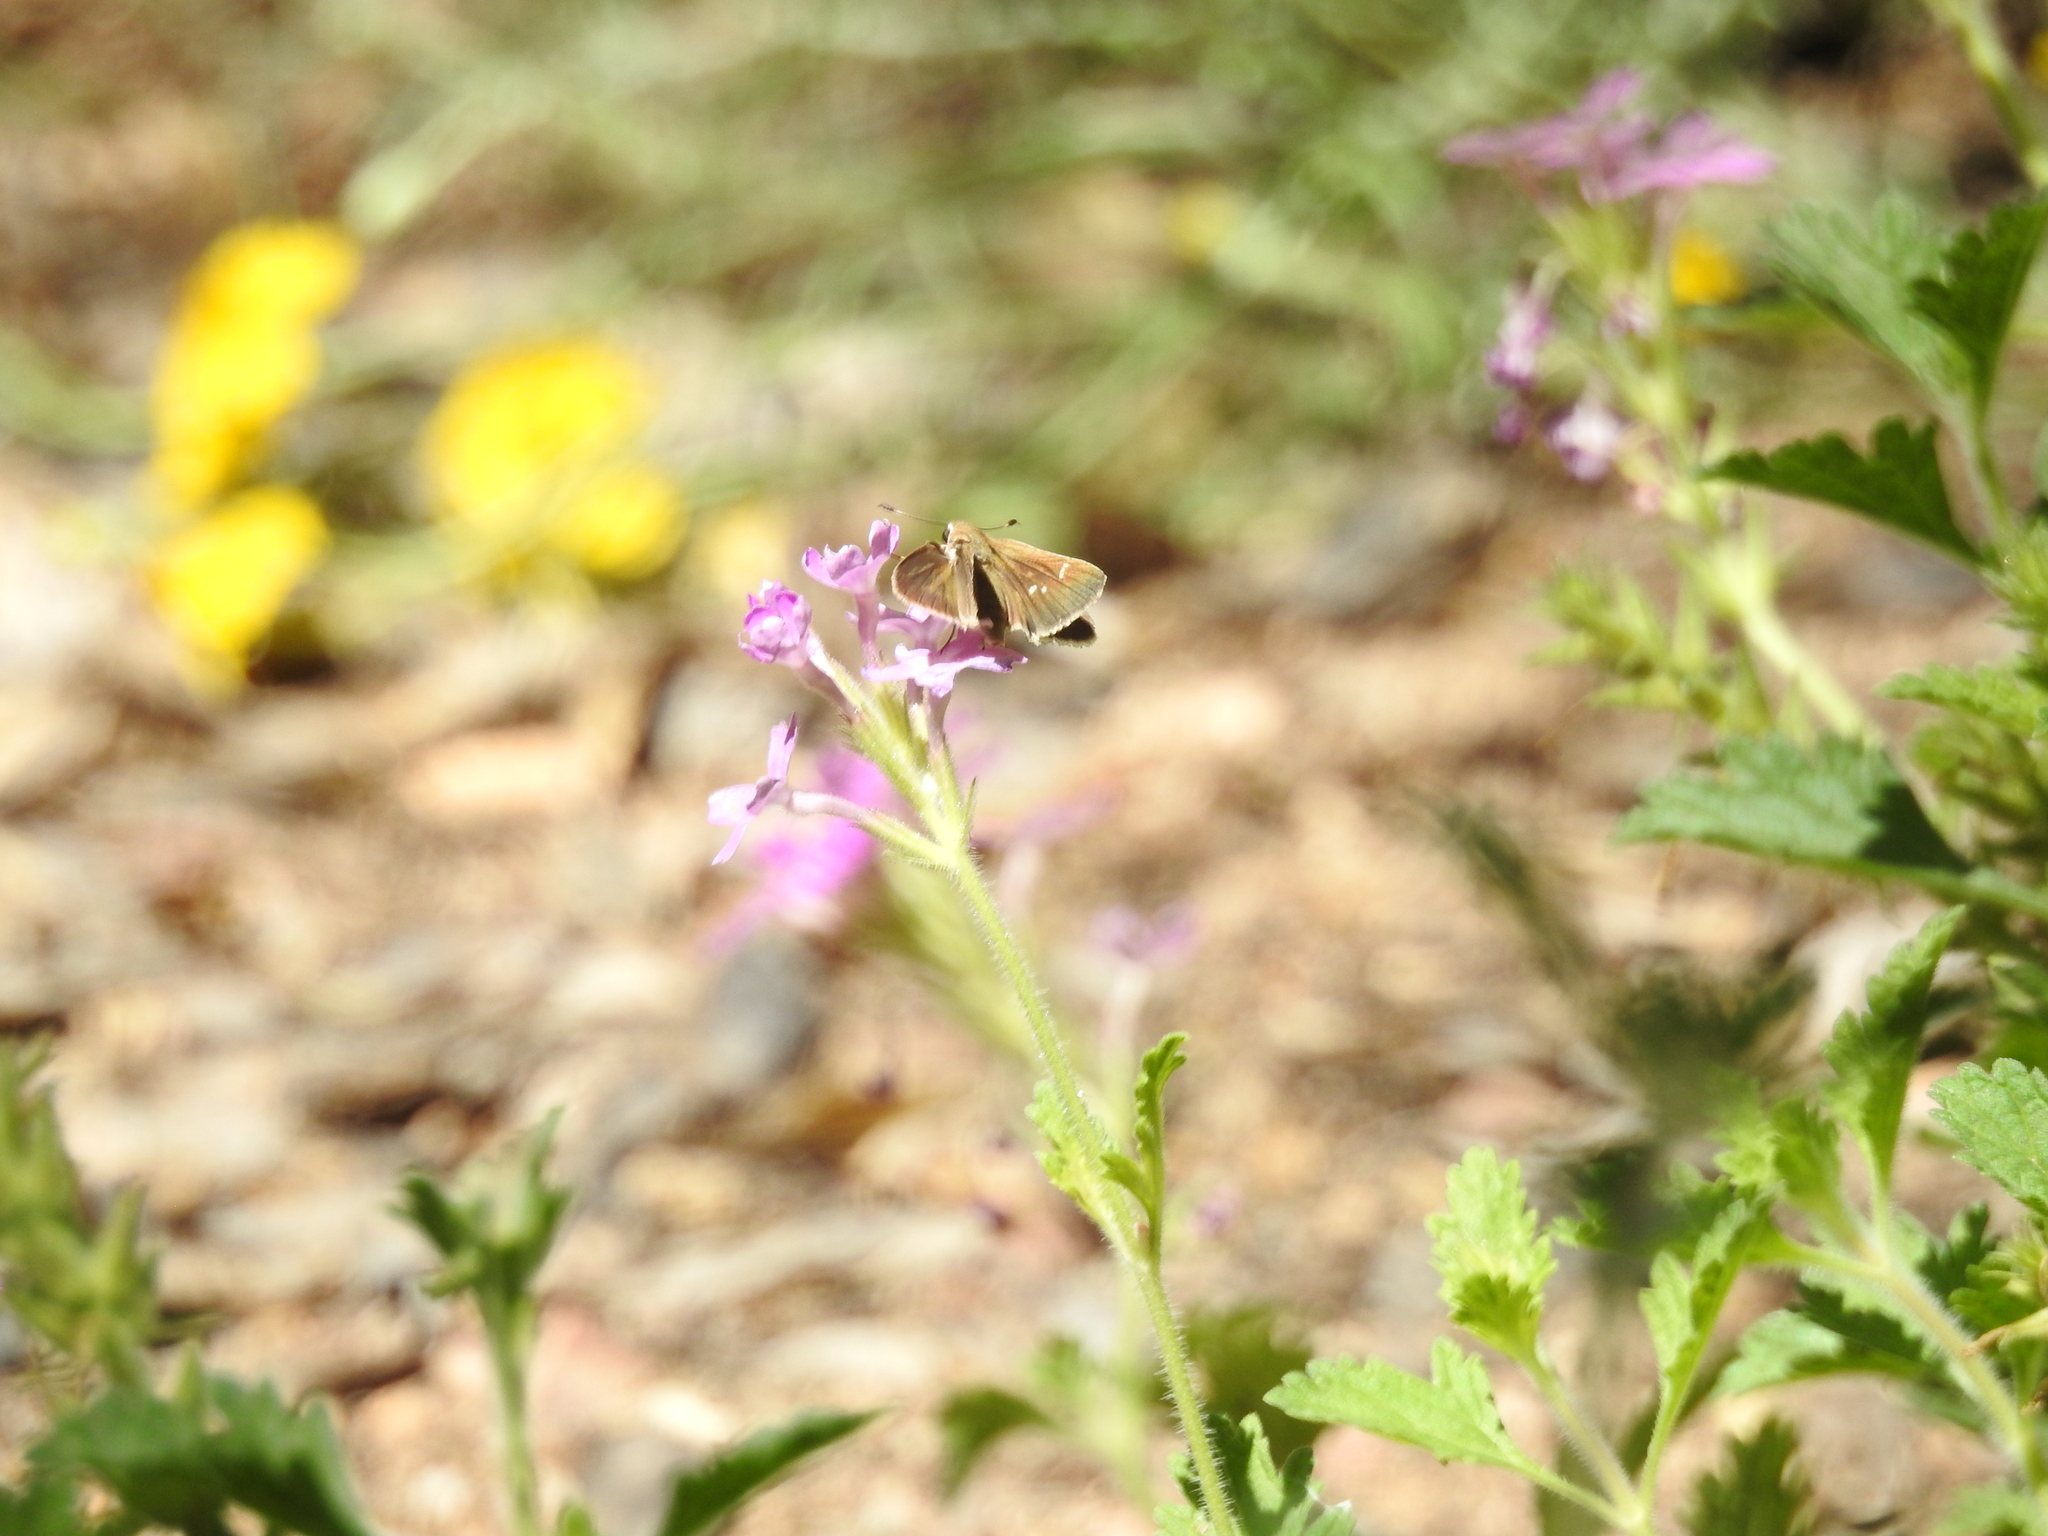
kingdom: Animalia
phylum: Arthropoda
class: Insecta
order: Lepidoptera
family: Hesperiidae
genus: Lerodea
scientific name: Lerodea eufala
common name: Eufala skipper
